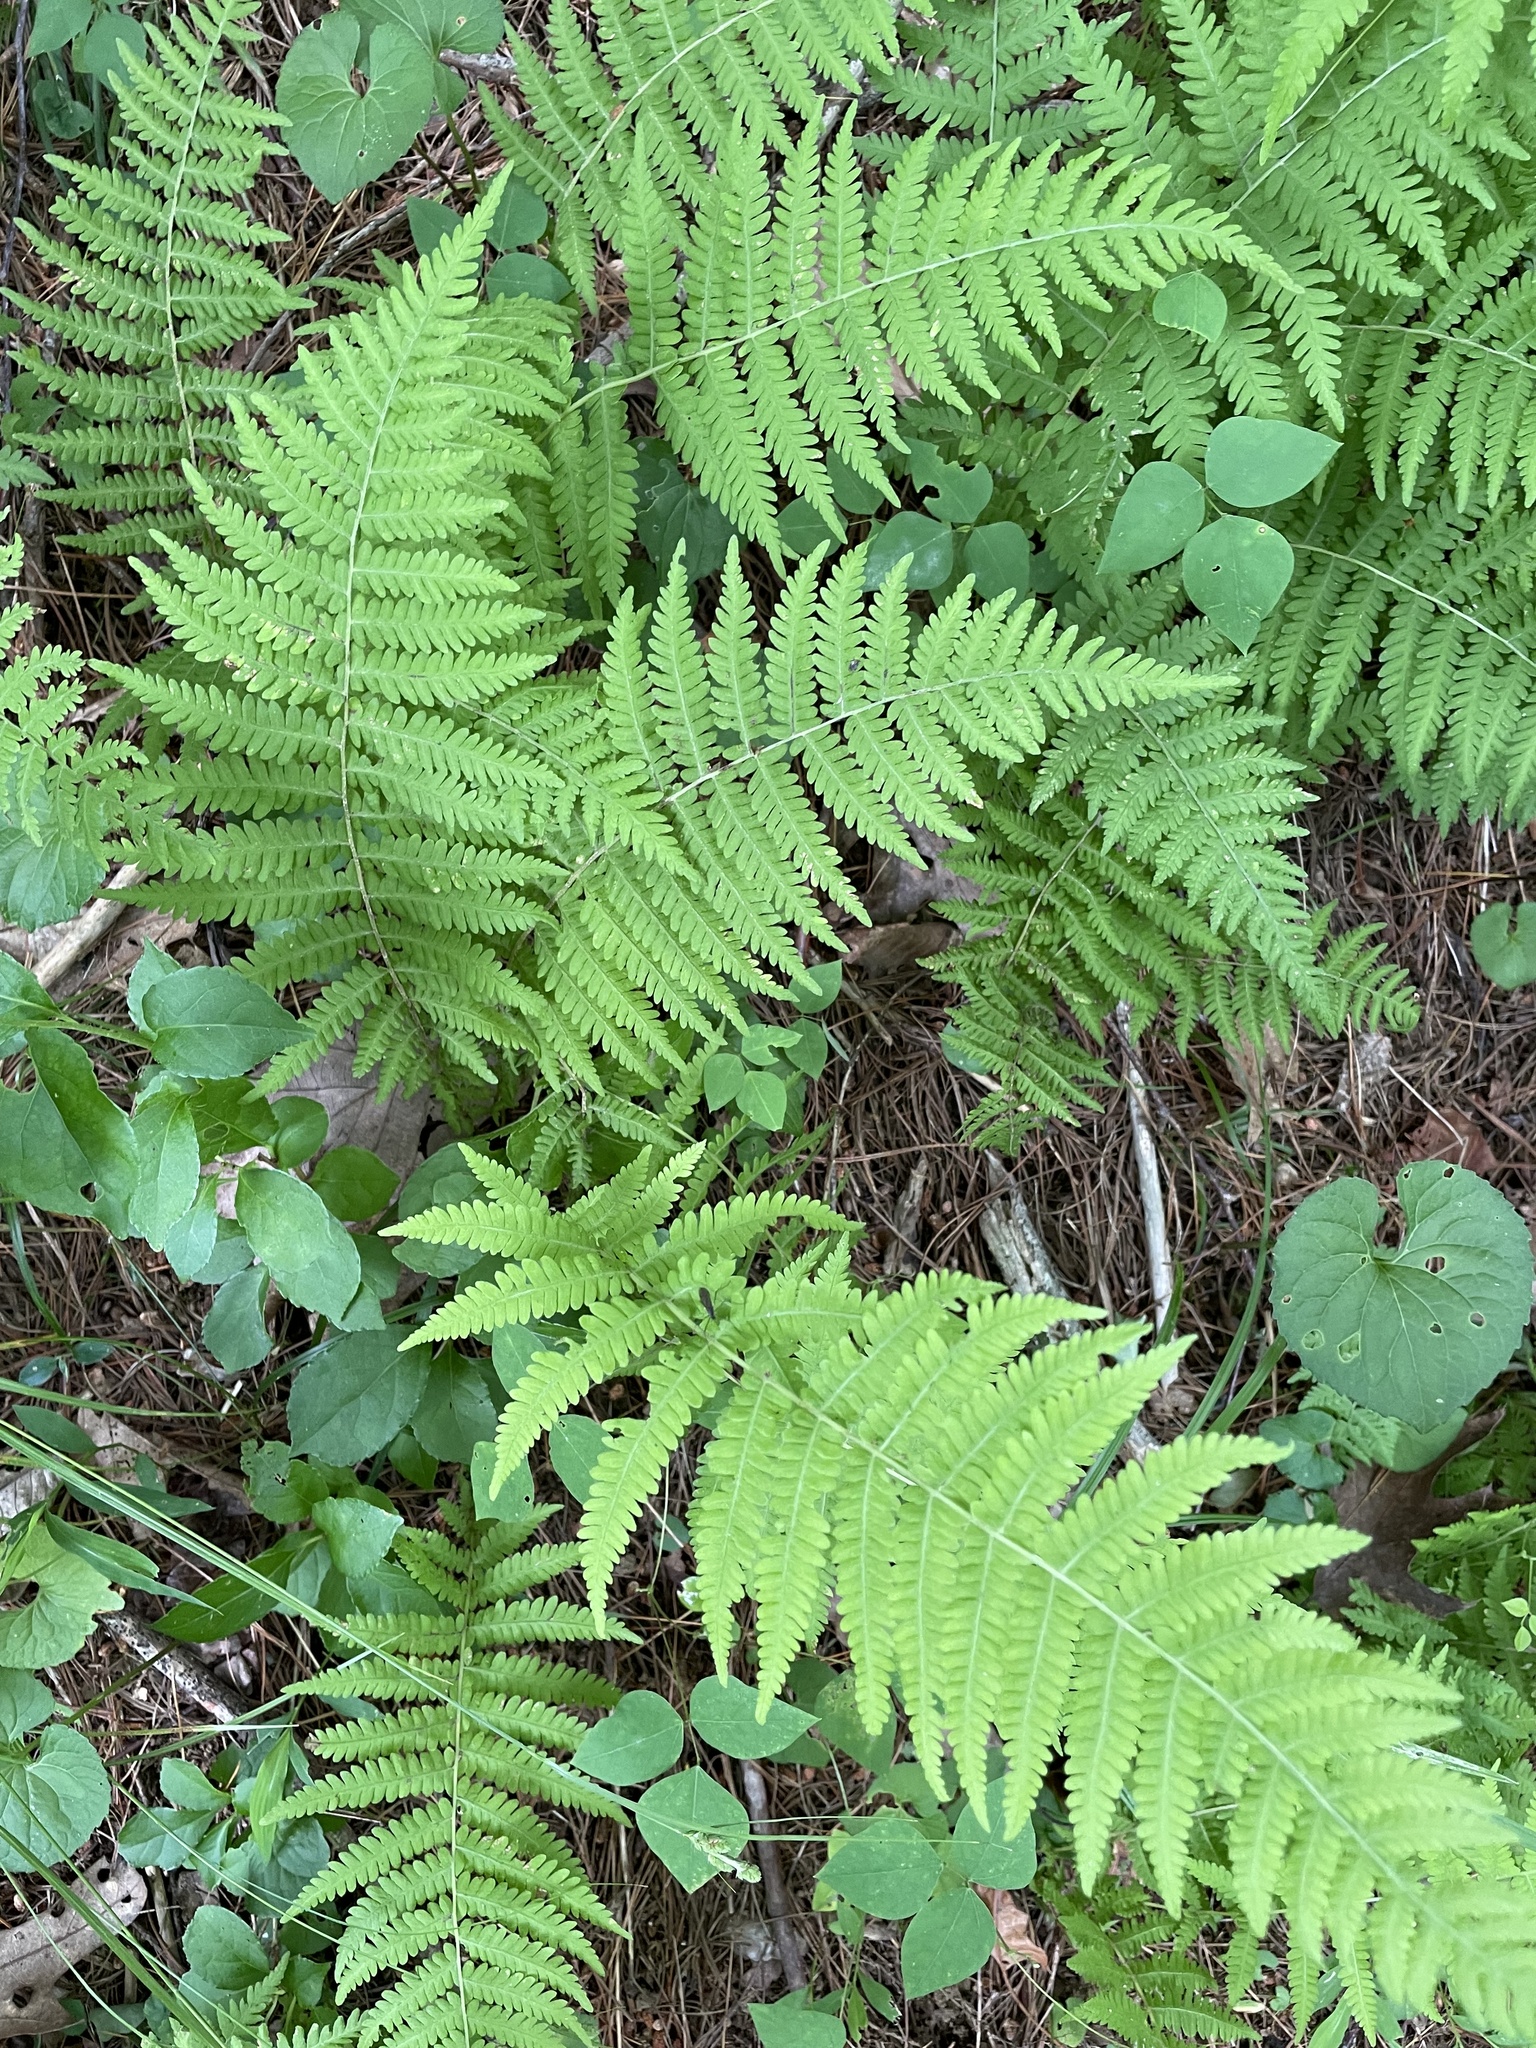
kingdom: Plantae
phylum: Tracheophyta
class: Polypodiopsida
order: Polypodiales
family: Thelypteridaceae
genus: Amauropelta
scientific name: Amauropelta noveboracensis
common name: New york fern
